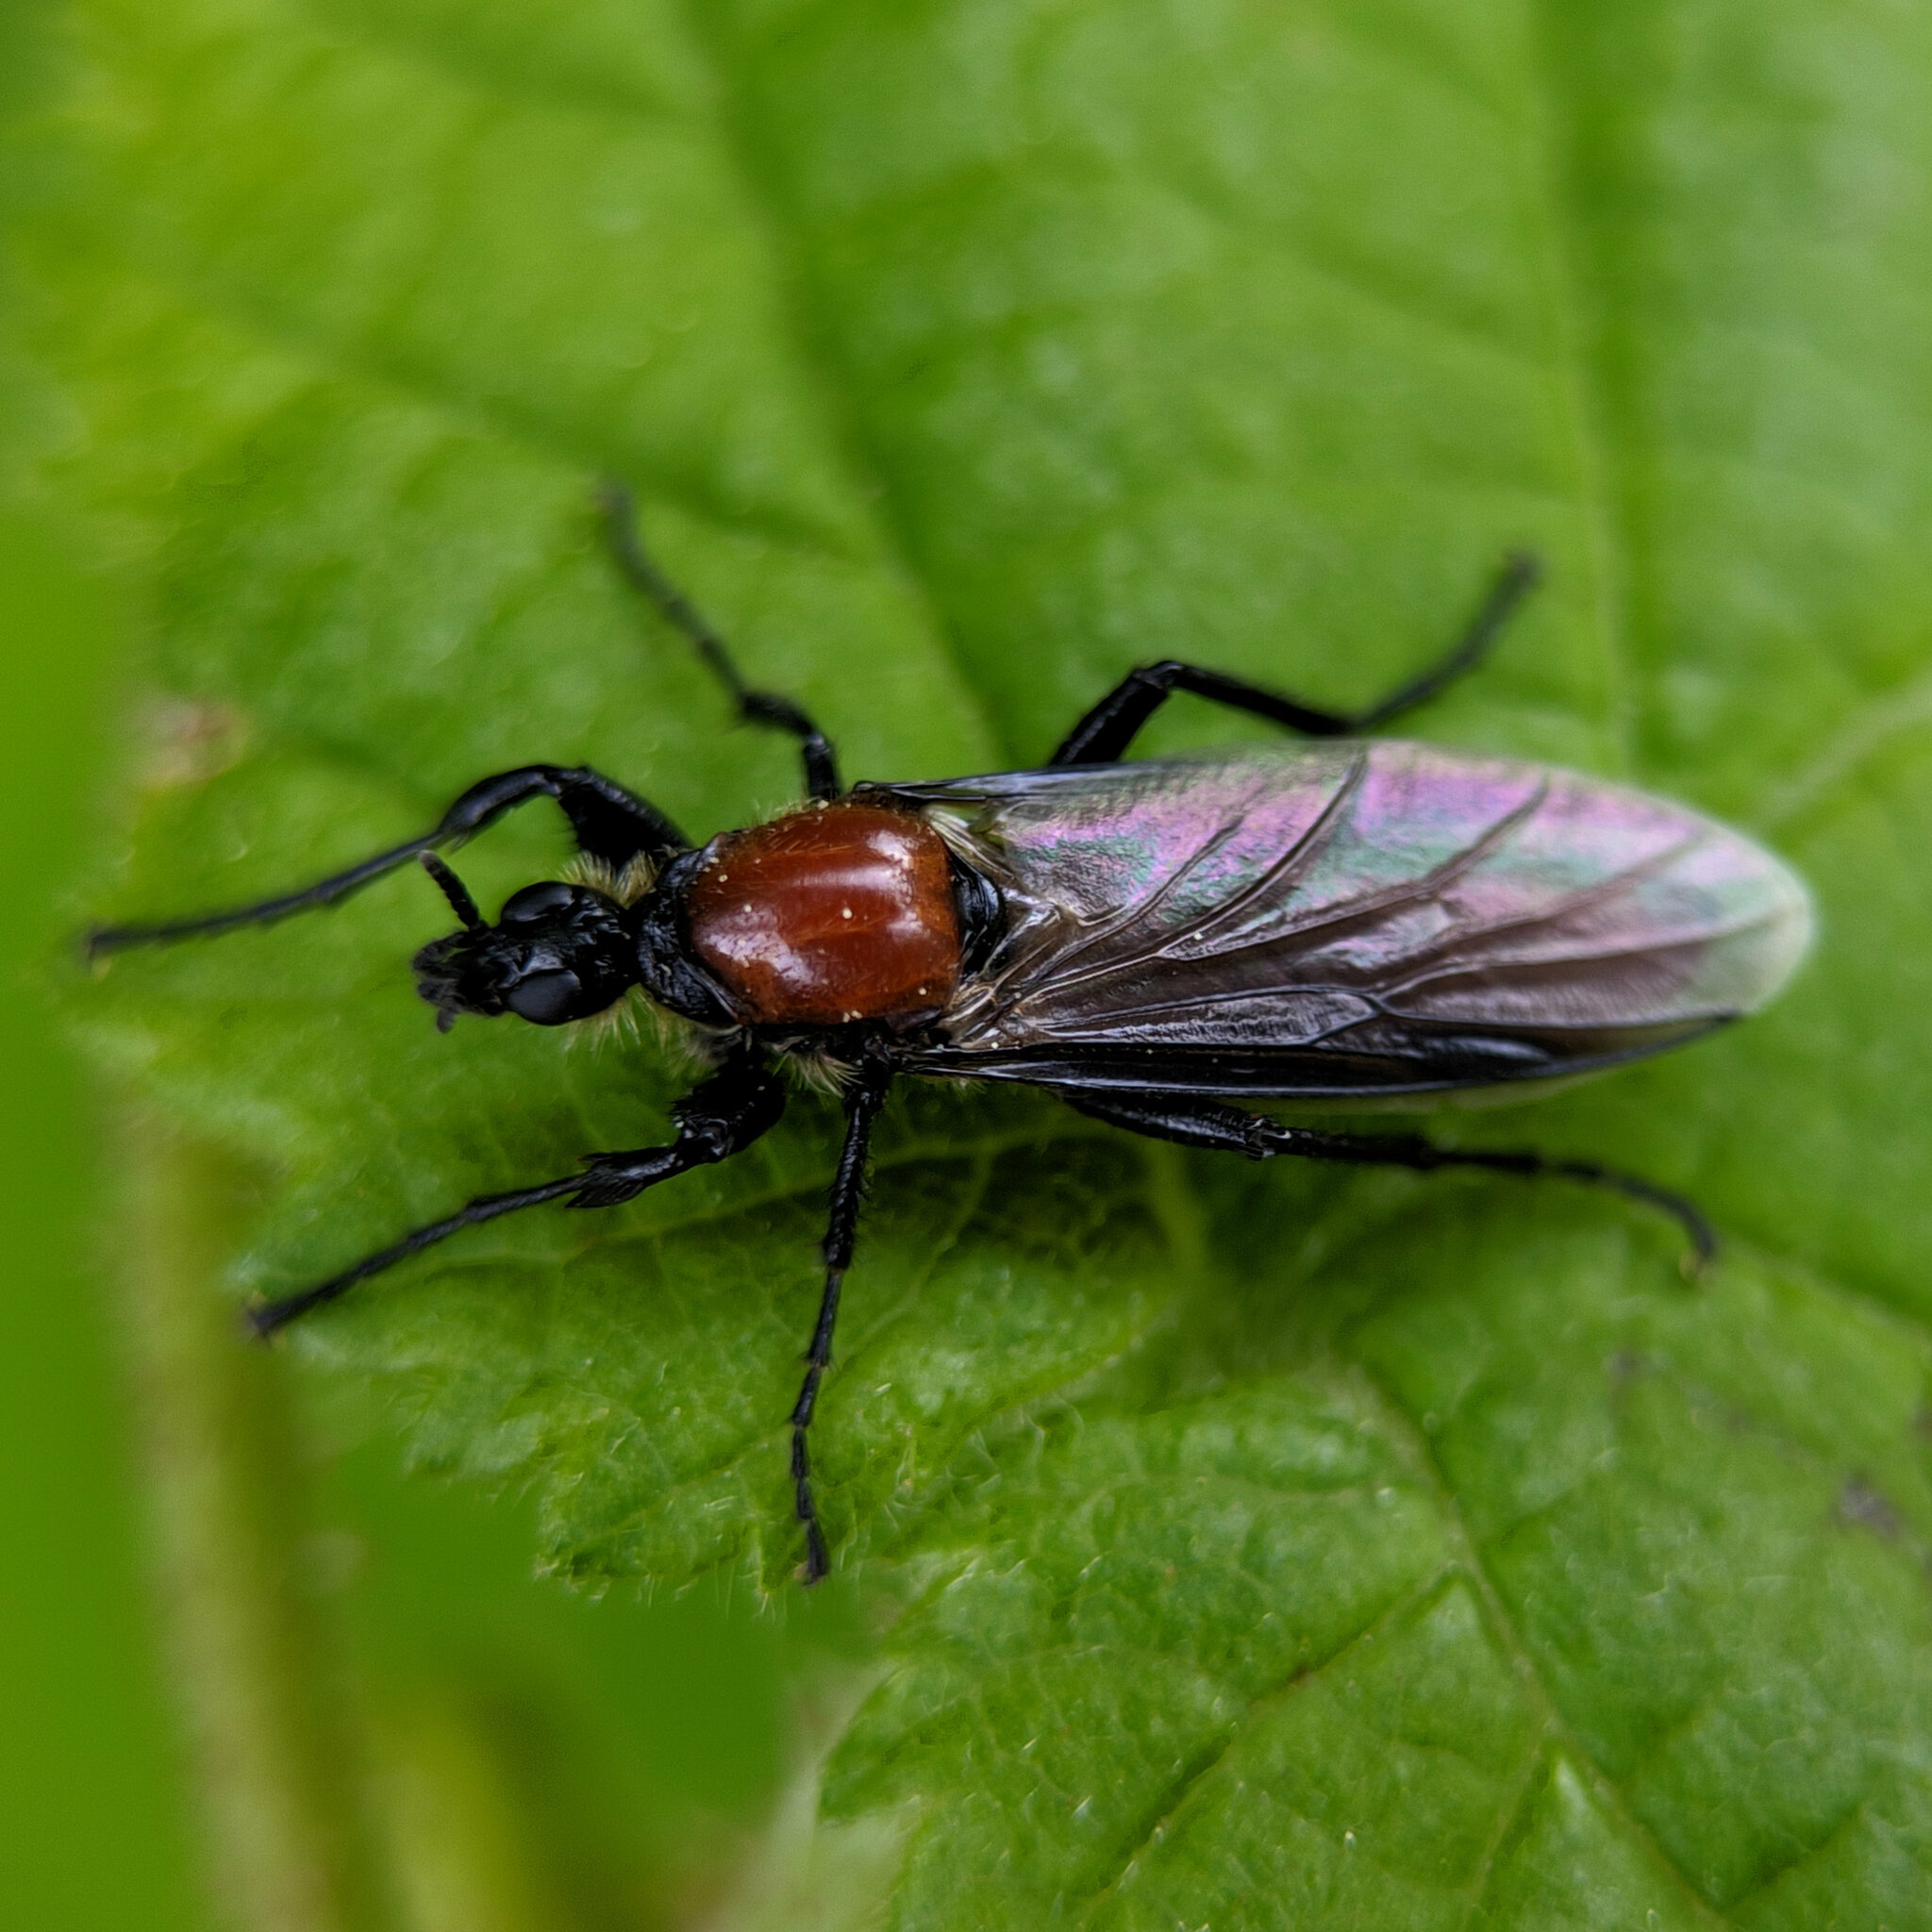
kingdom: Animalia
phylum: Arthropoda
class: Insecta
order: Diptera
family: Bibionidae
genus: Bibio
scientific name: Bibio hortulanus
